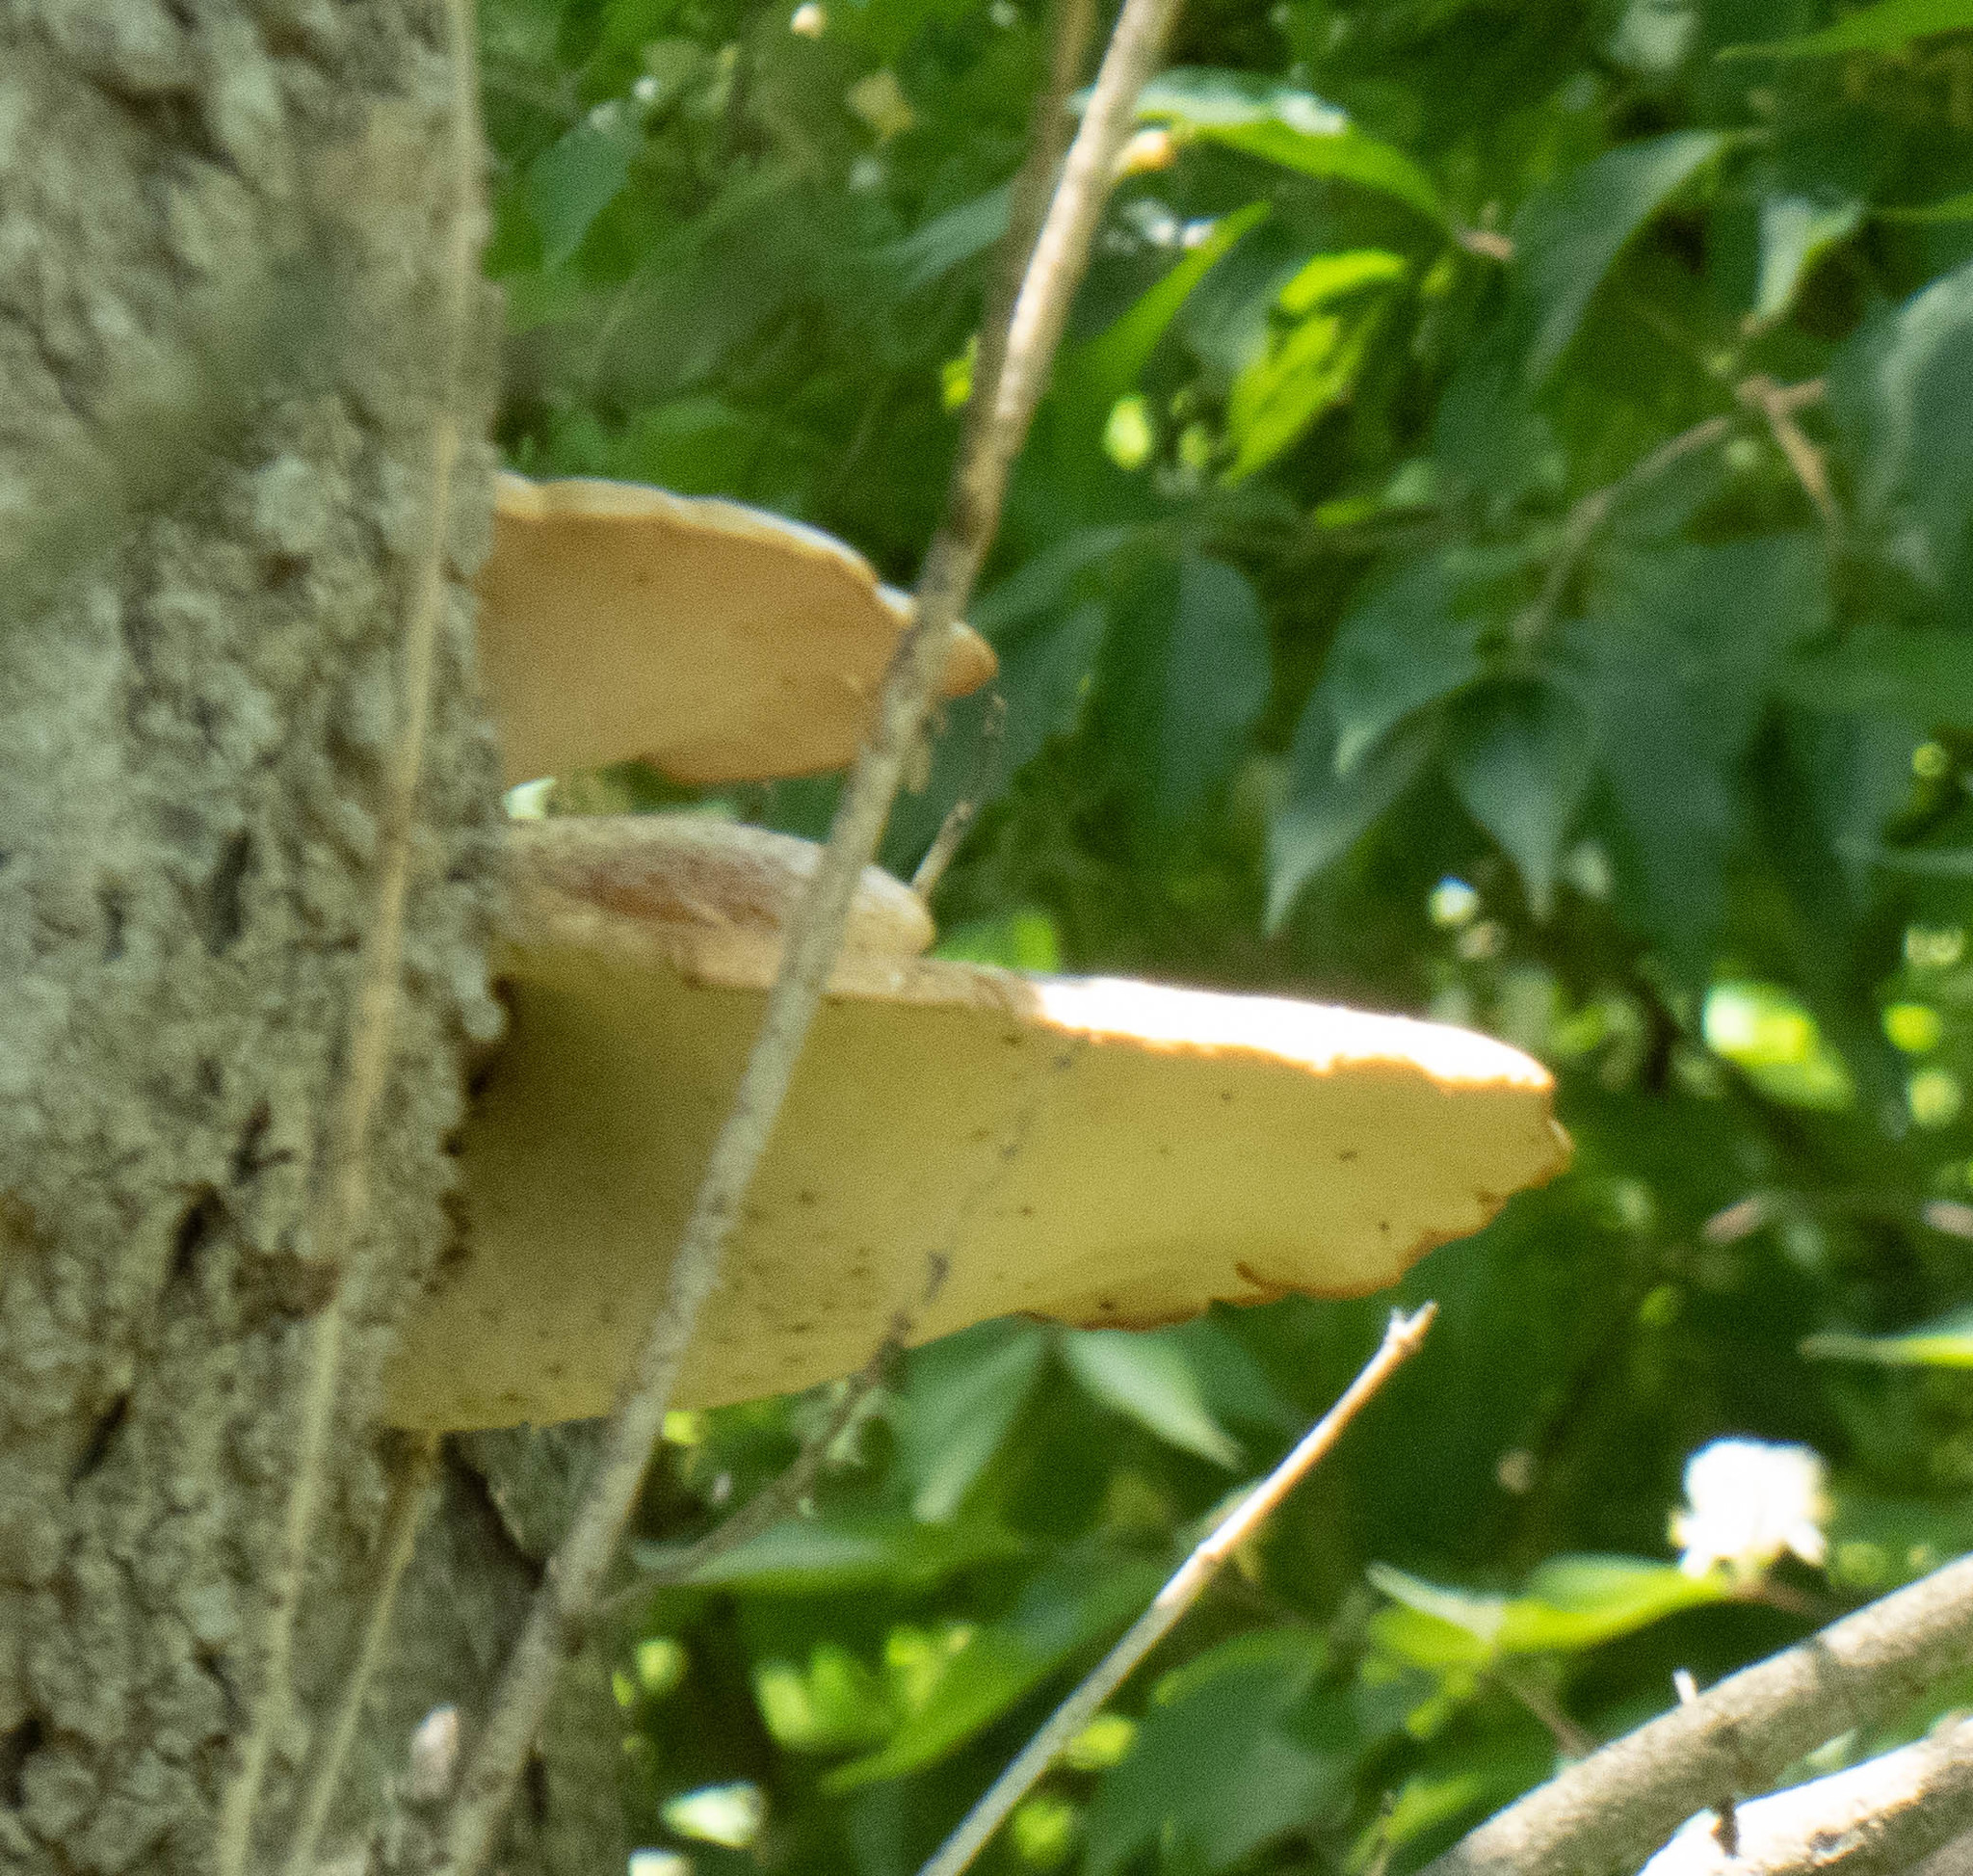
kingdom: Fungi
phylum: Basidiomycota
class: Agaricomycetes
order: Polyporales
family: Polyporaceae
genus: Cerioporus
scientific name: Cerioporus squamosus
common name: Dryad's saddle
